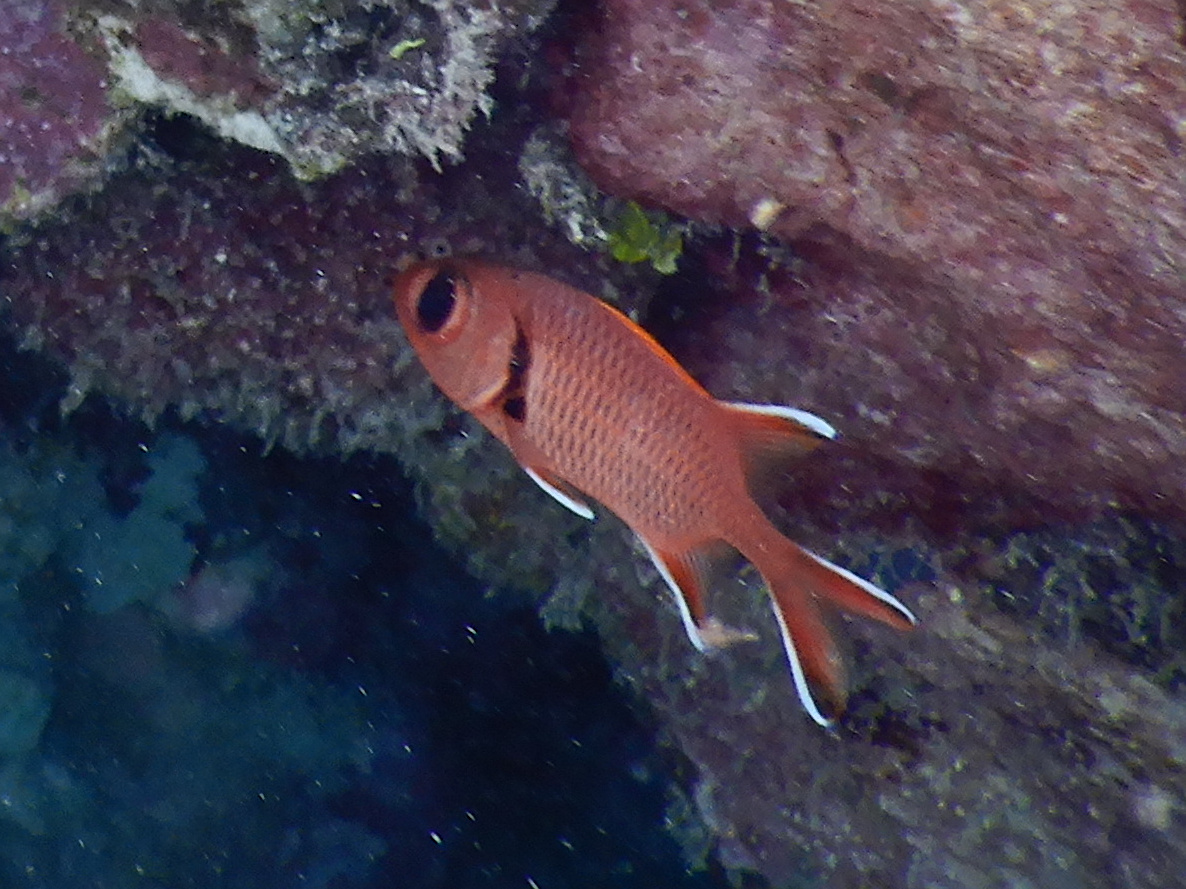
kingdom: Animalia
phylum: Chordata
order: Beryciformes
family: Holocentridae
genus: Myripristis
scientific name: Myripristis berndti
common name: Bigscale soldierfish
